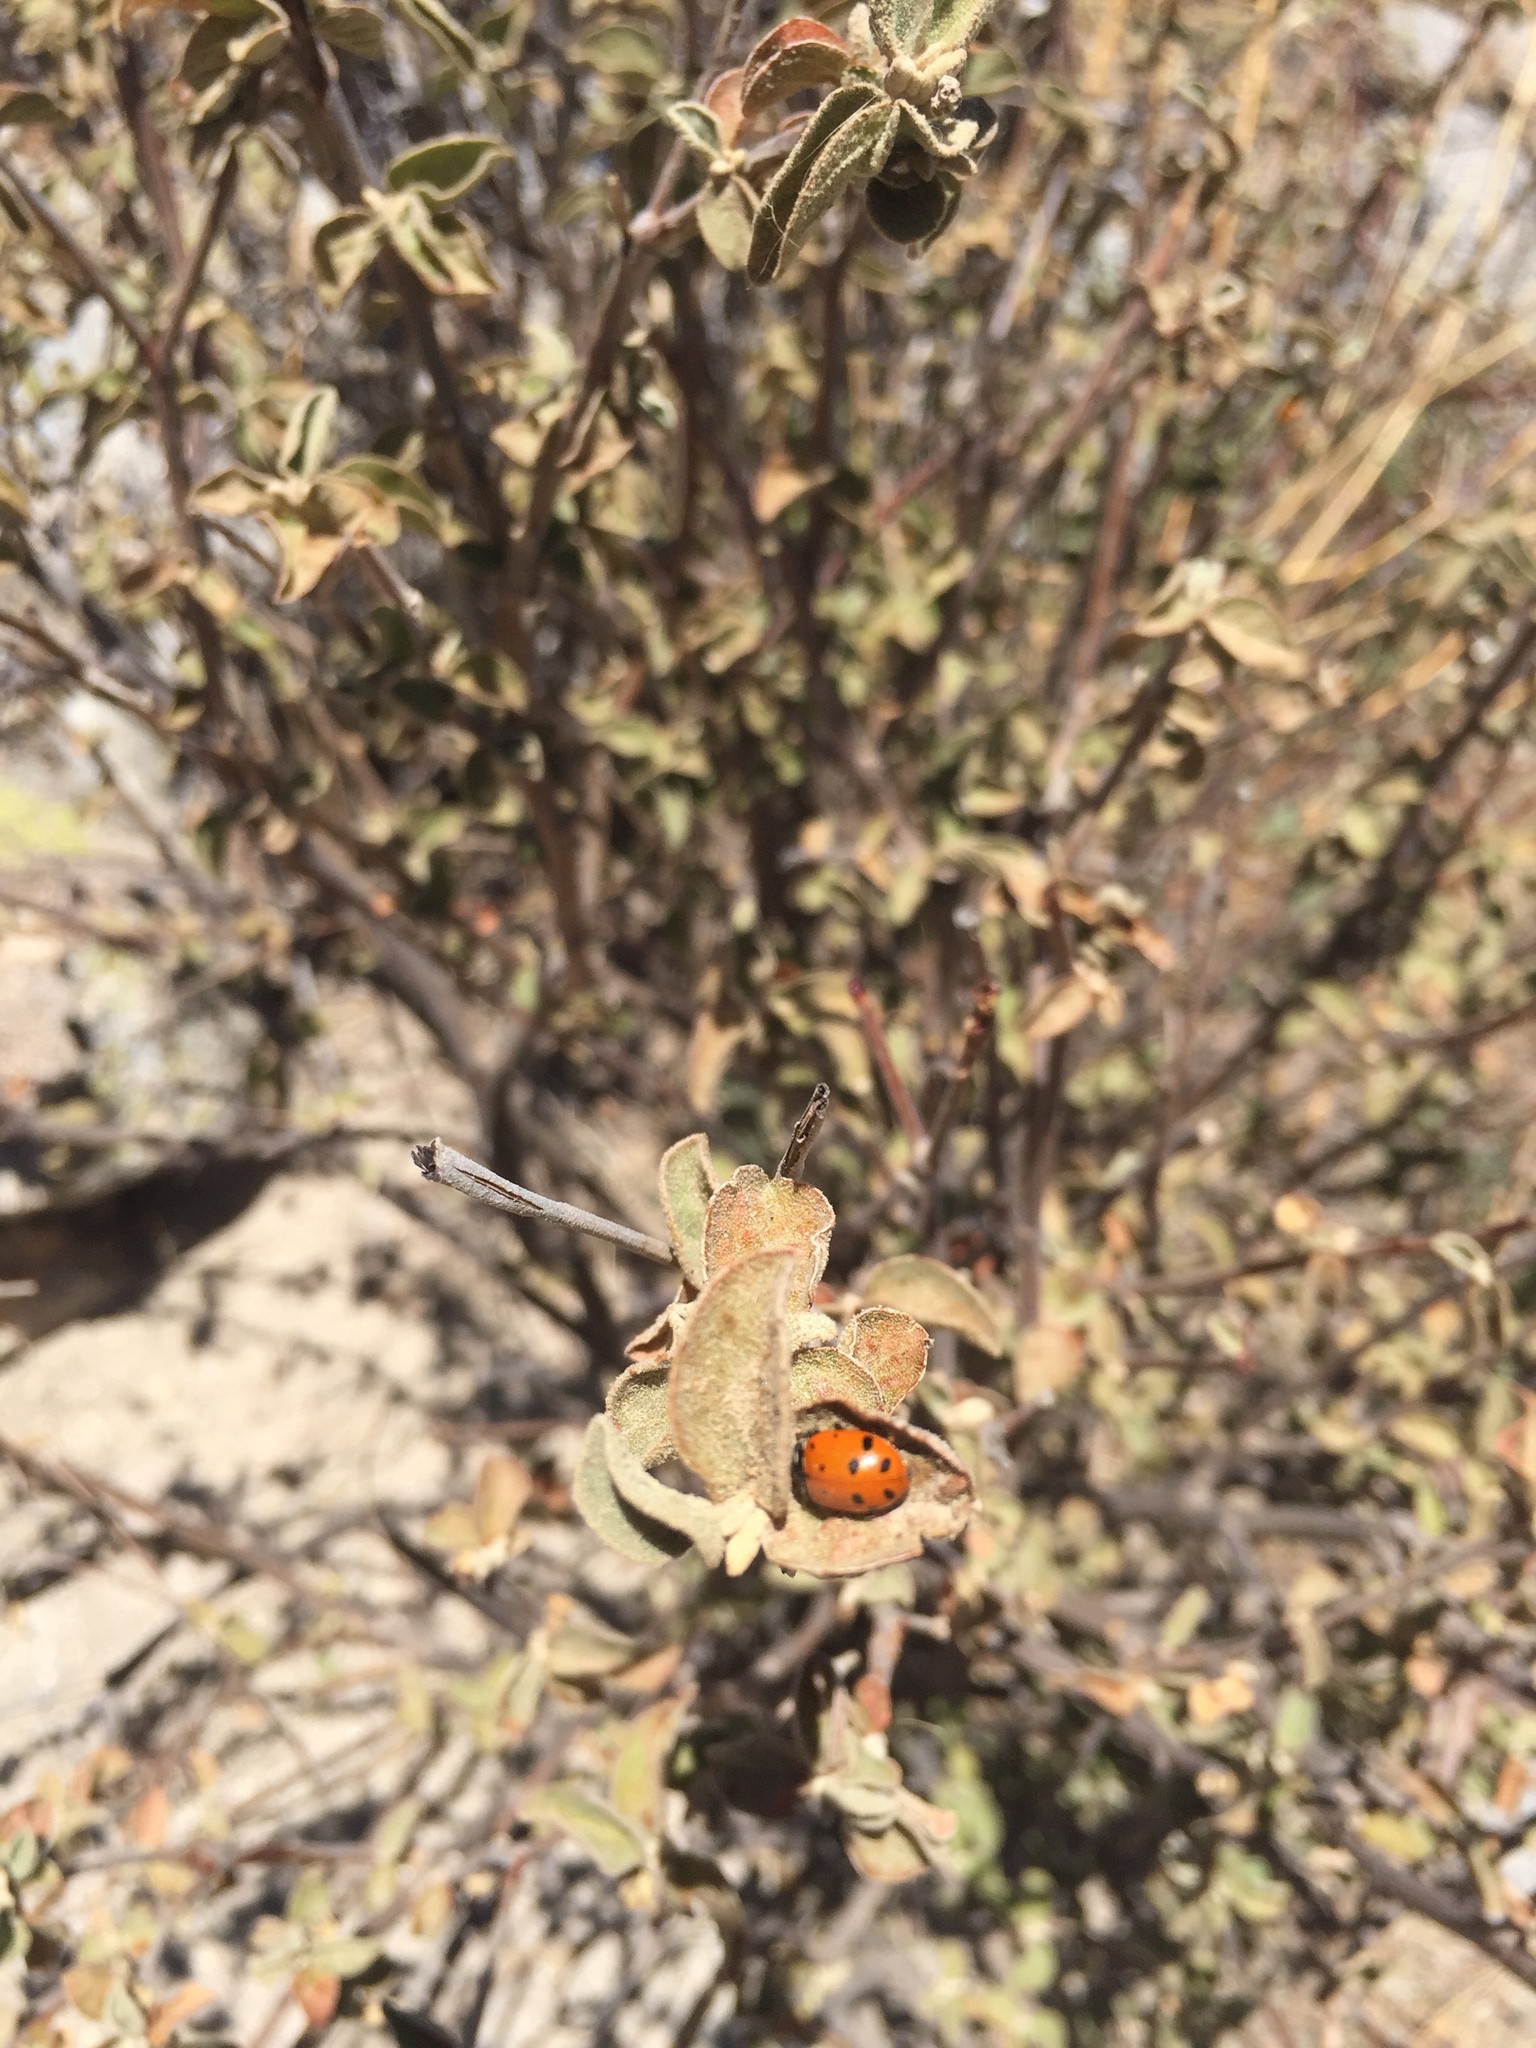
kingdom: Animalia
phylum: Arthropoda
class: Insecta
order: Coleoptera
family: Coccinellidae
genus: Hippodamia
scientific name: Hippodamia convergens
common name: Convergent lady beetle
